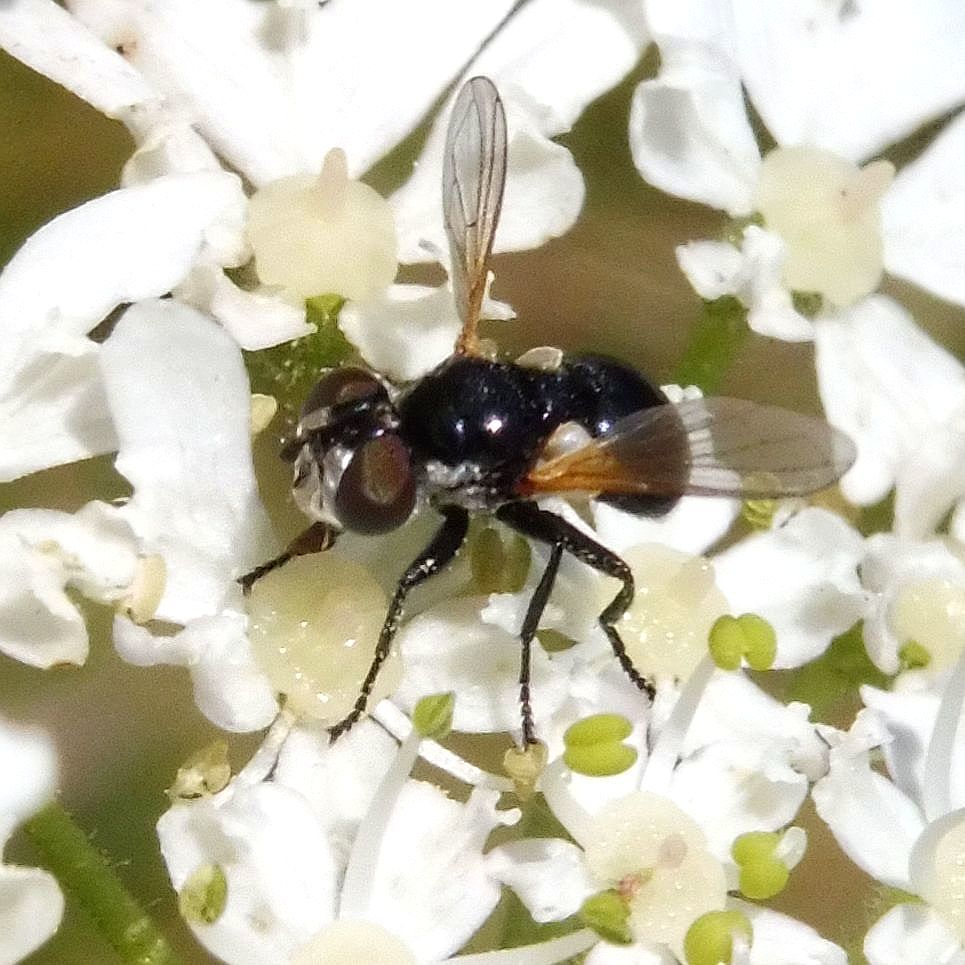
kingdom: Animalia
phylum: Arthropoda
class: Insecta
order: Diptera
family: Tachinidae
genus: Cistogaster
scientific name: Cistogaster globosa
